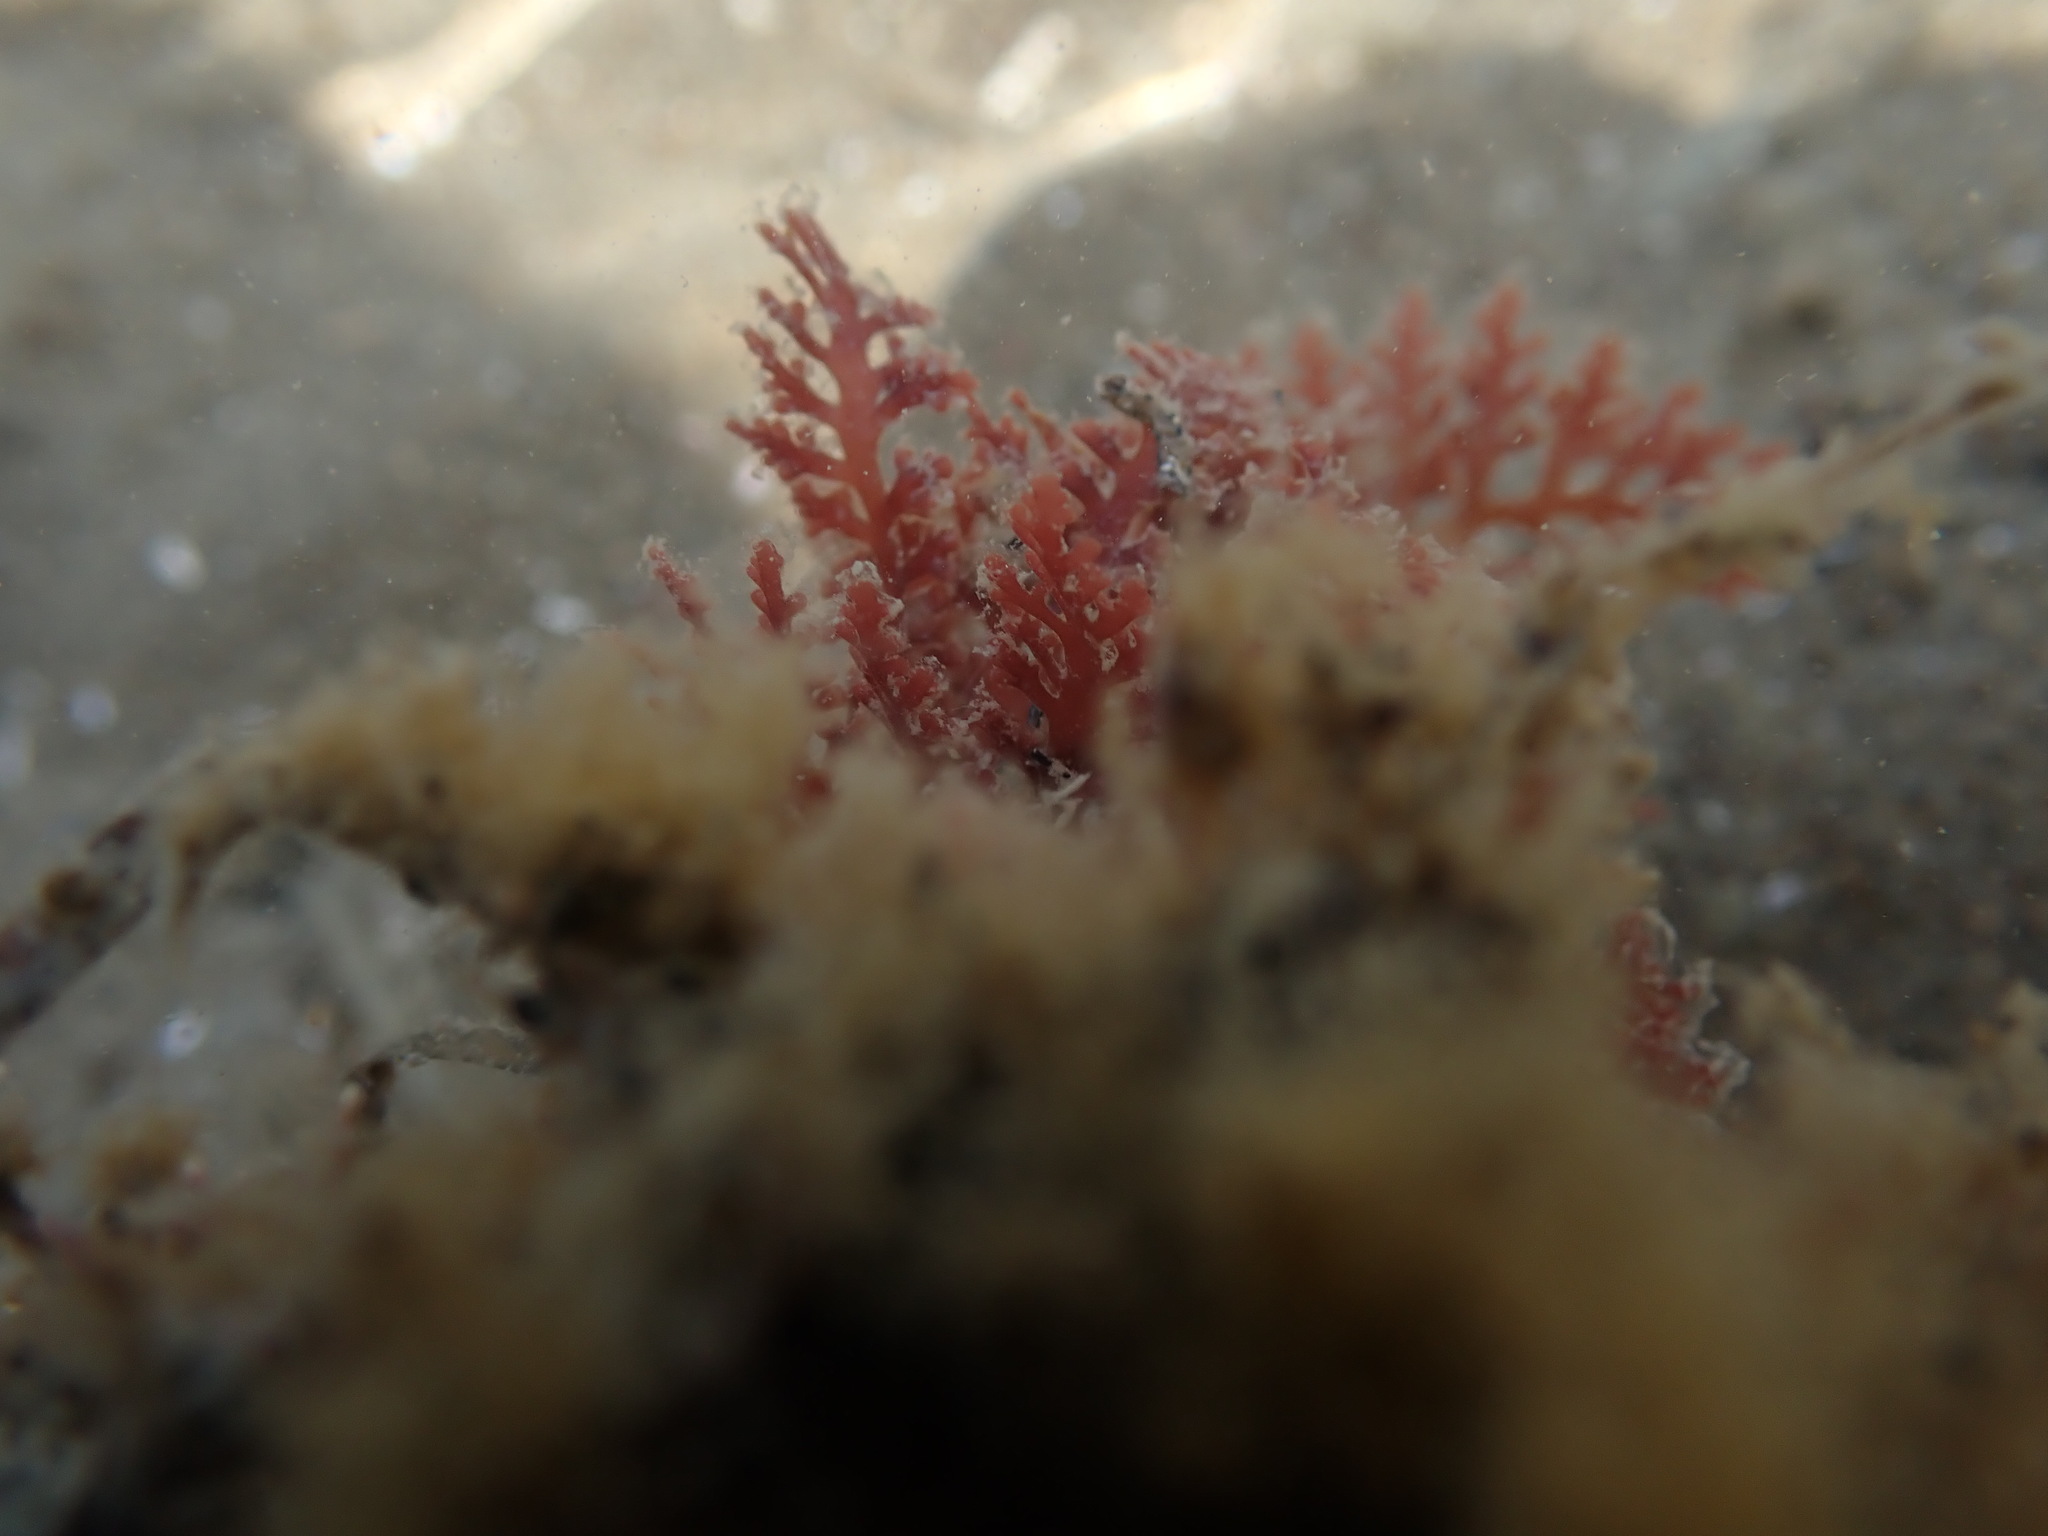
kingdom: Plantae
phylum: Rhodophyta
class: Florideophyceae
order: Ceramiales
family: Rhodomelaceae
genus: Laurencia
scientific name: Laurencia distichophylla
